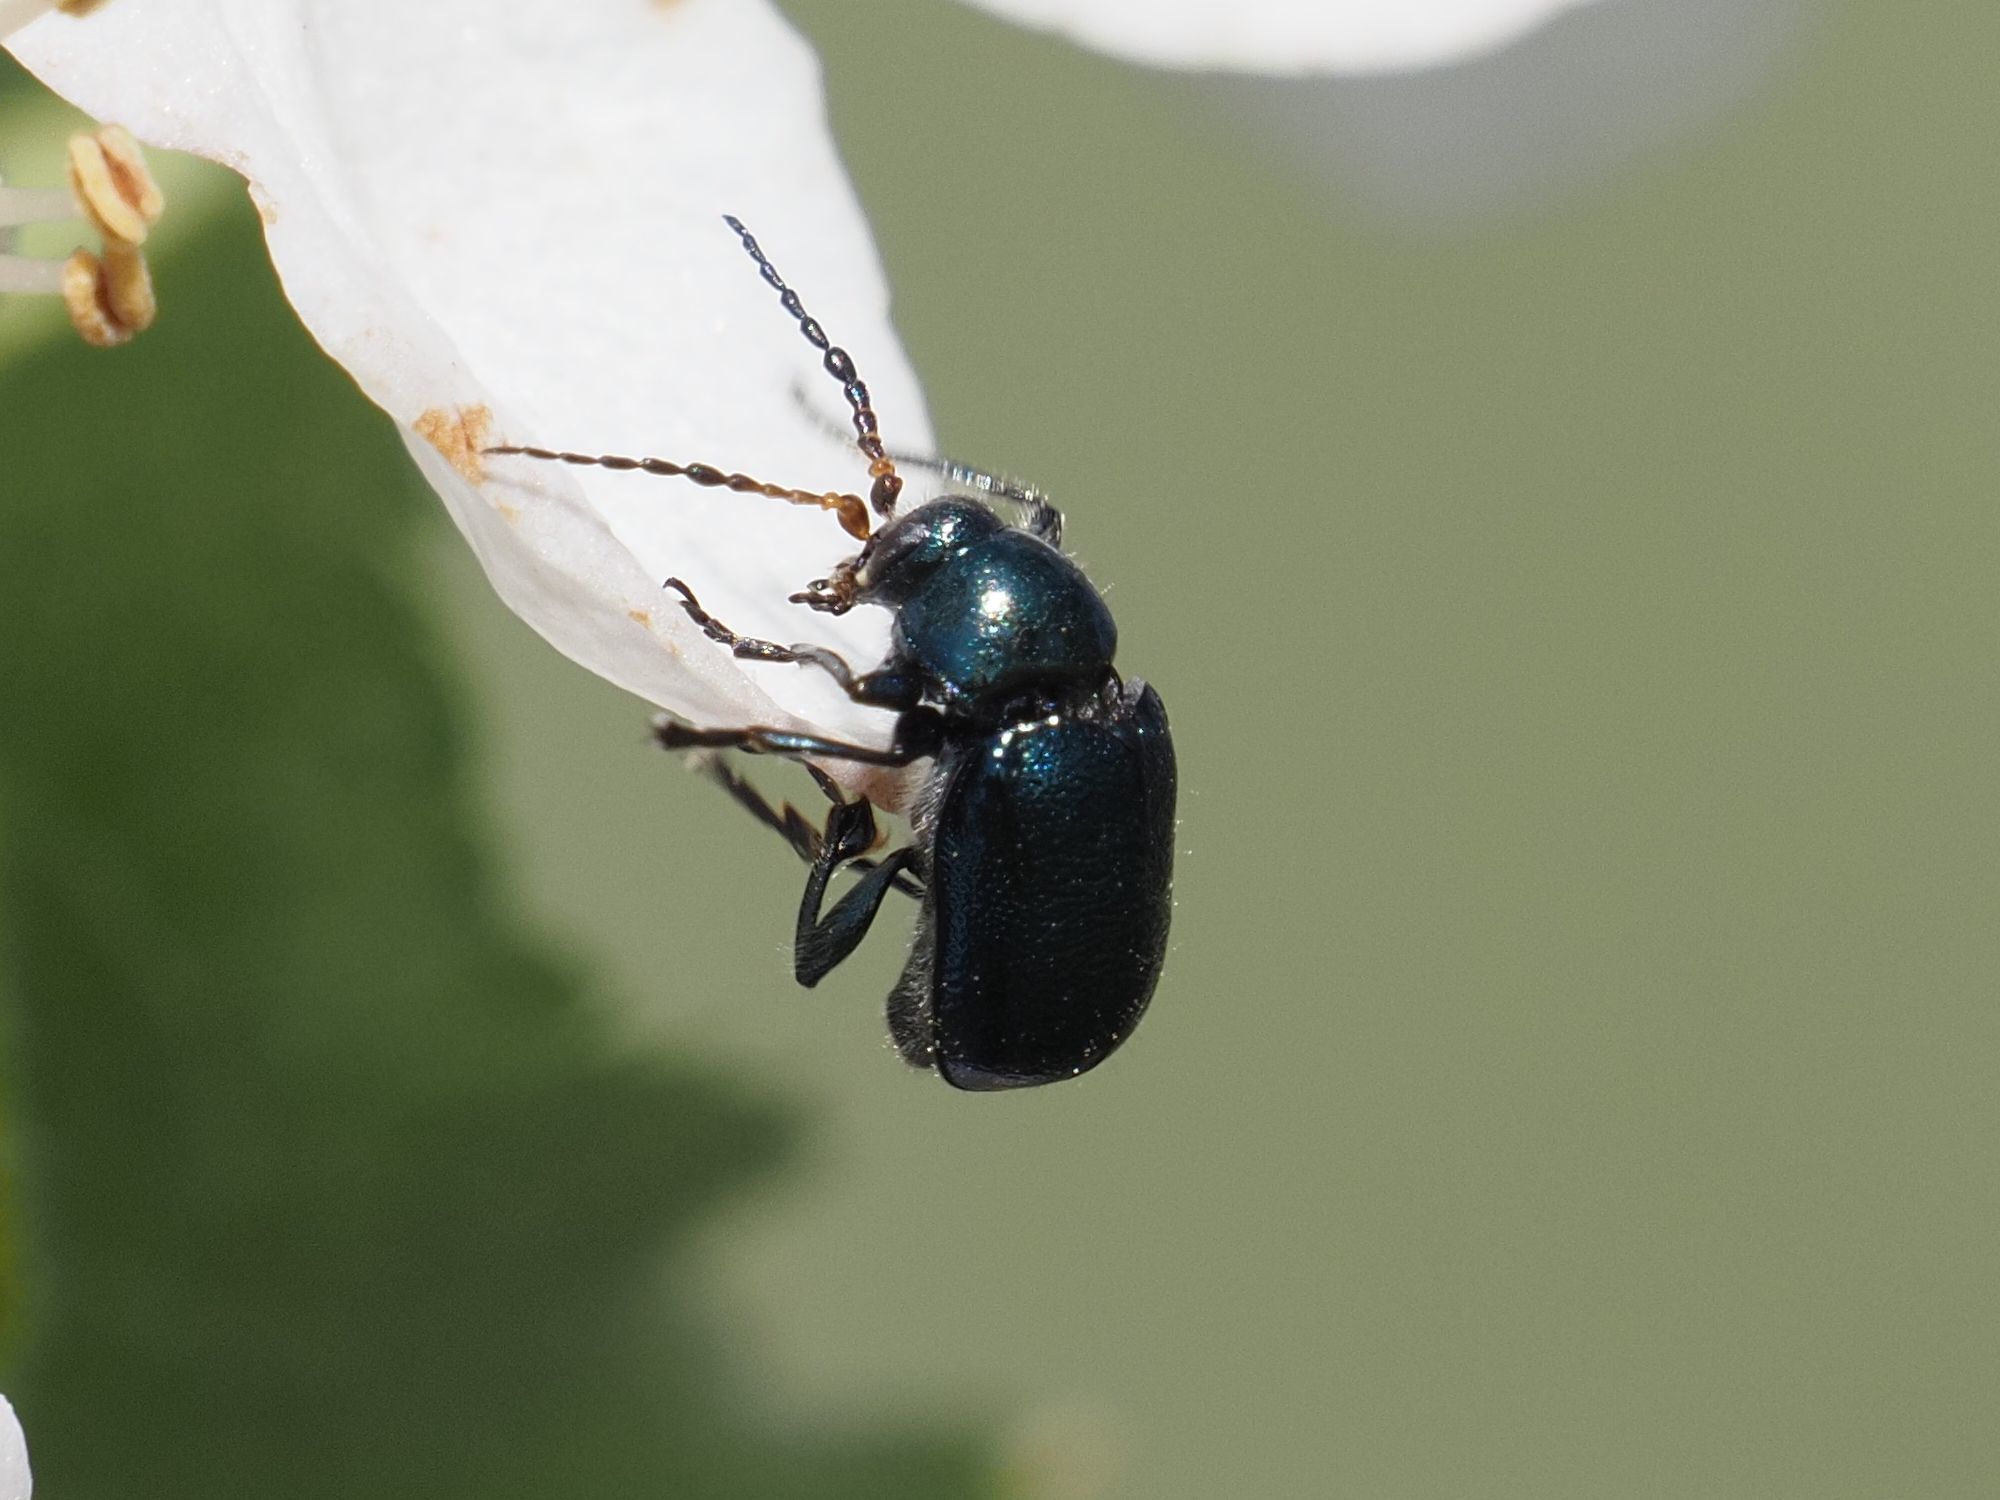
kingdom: Animalia
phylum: Arthropoda
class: Insecta
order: Coleoptera
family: Chrysomelidae
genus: Cryptocephalus
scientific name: Cryptocephalus schaefferi
